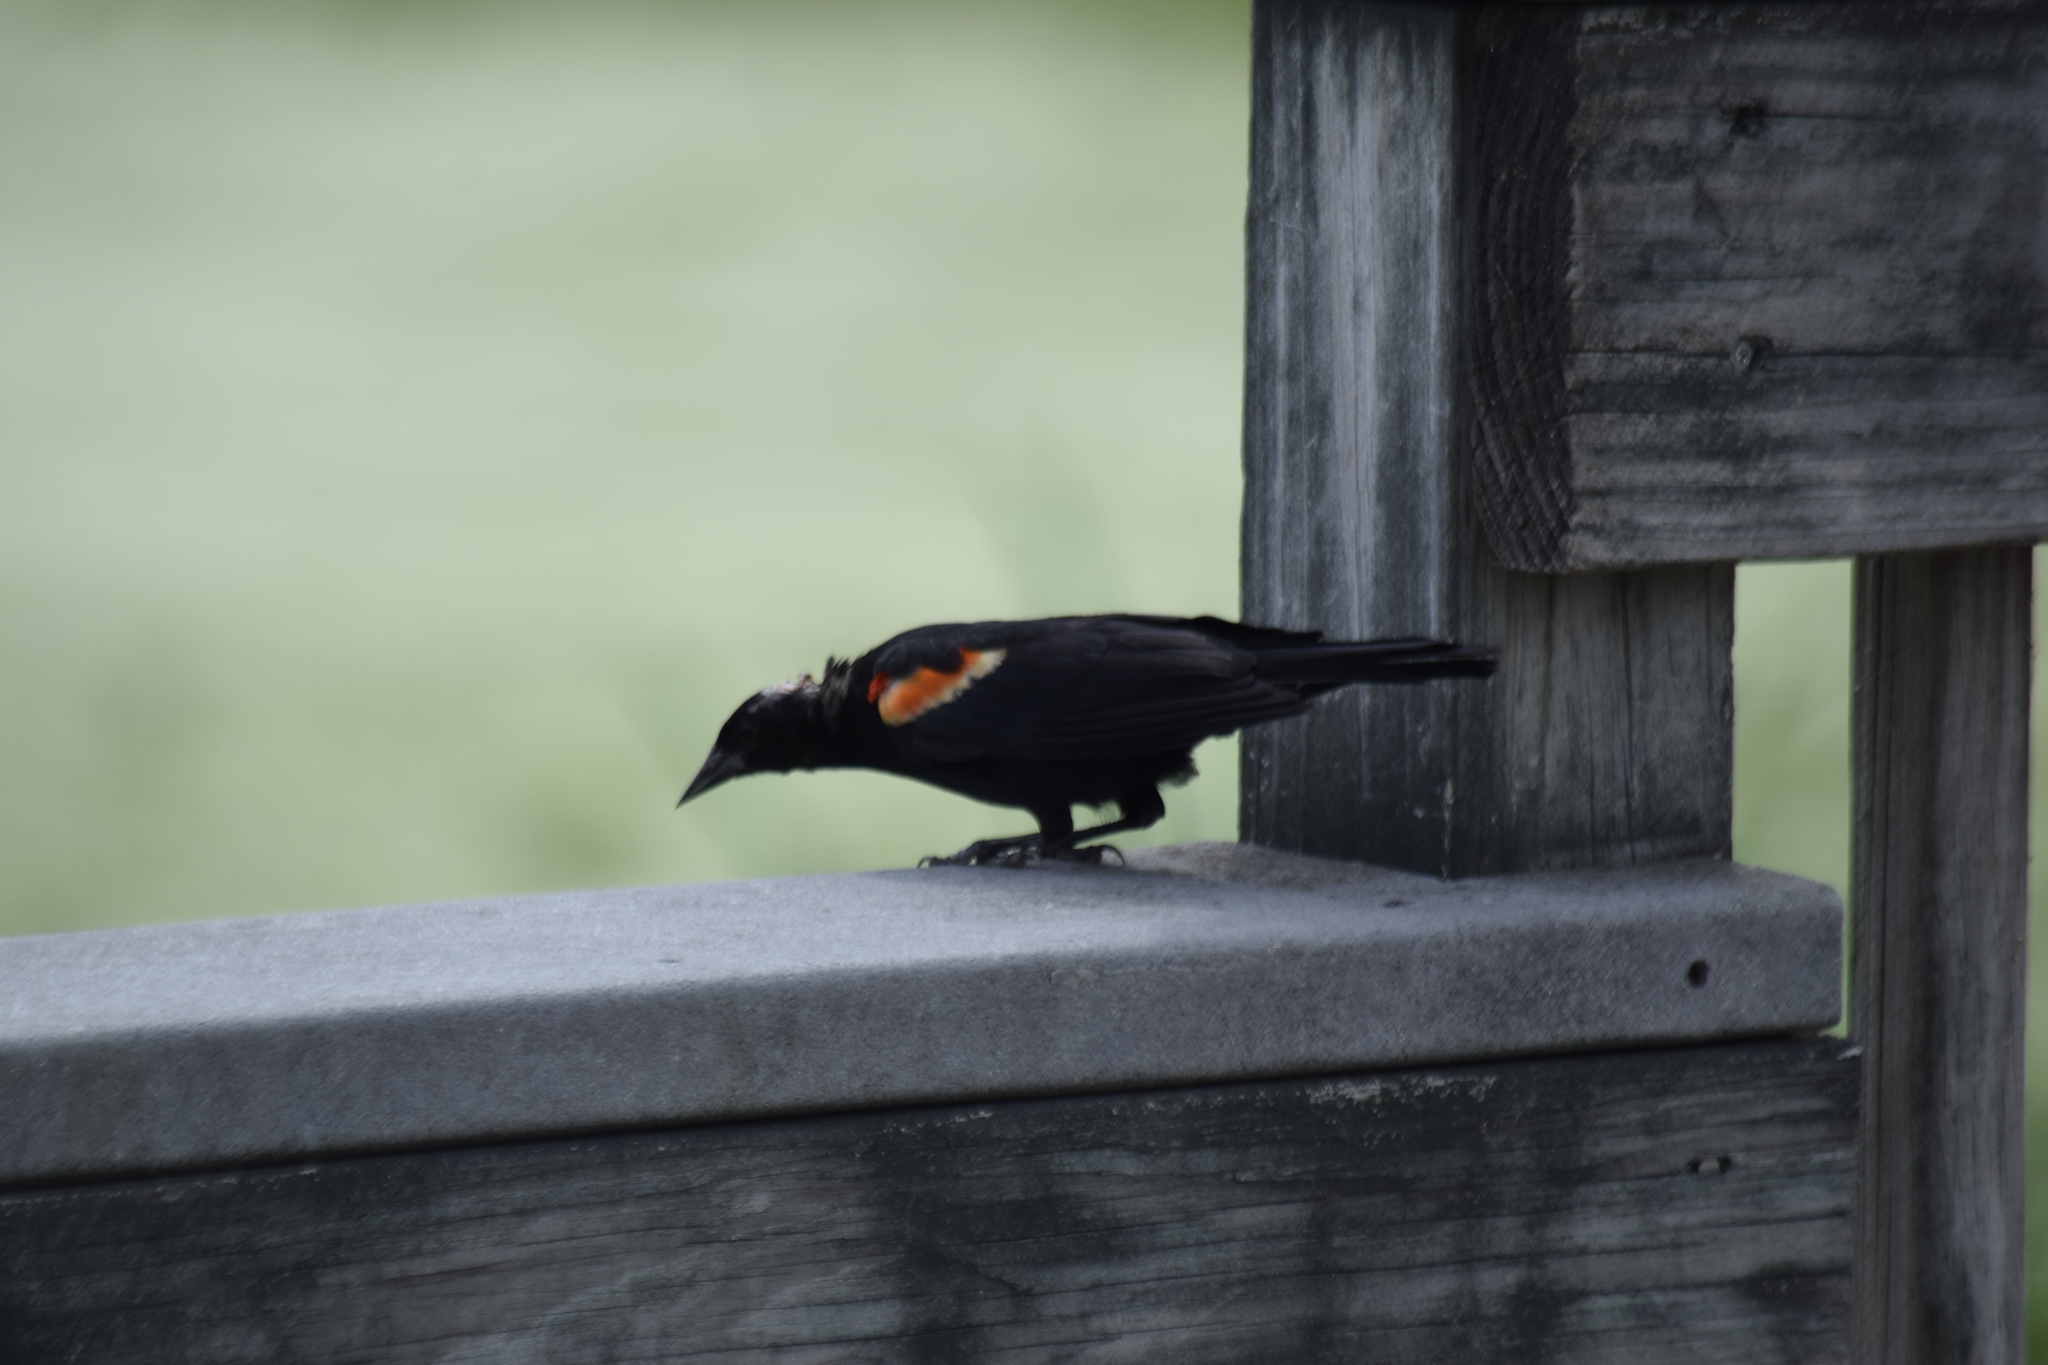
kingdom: Animalia
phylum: Chordata
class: Aves
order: Passeriformes
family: Icteridae
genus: Agelaius
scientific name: Agelaius phoeniceus
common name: Red-winged blackbird
